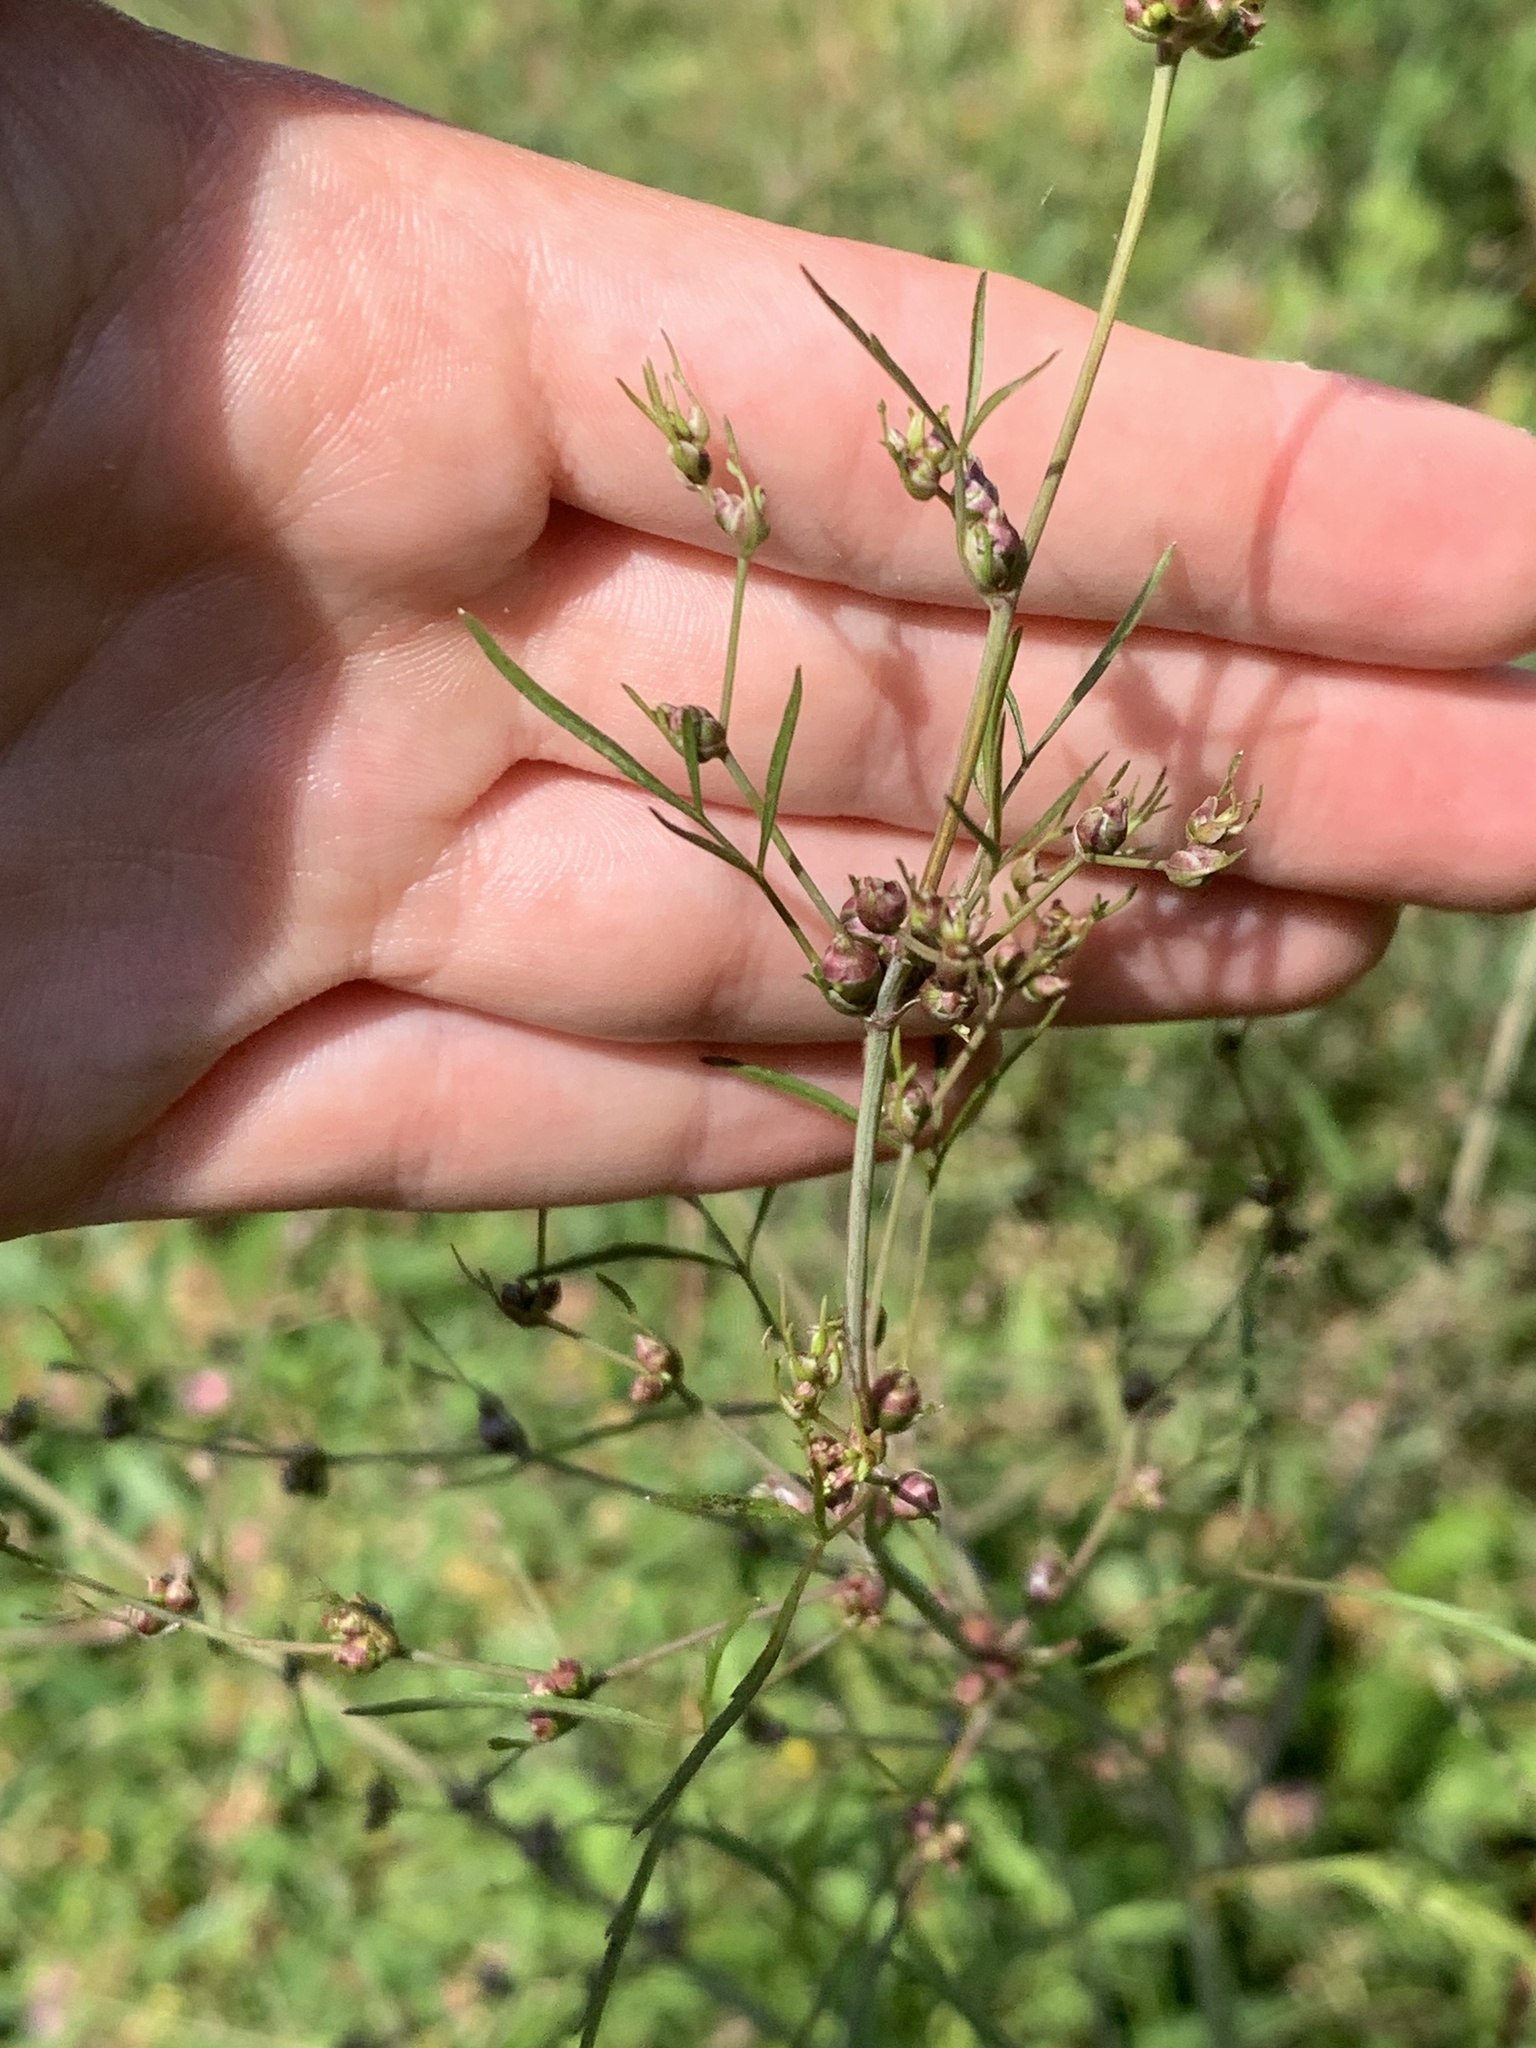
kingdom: Plantae
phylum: Tracheophyta
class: Magnoliopsida
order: Apiales
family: Apiaceae
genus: Cicuta
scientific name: Cicuta bulbifera
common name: Bulb-bearing water-hemlock
